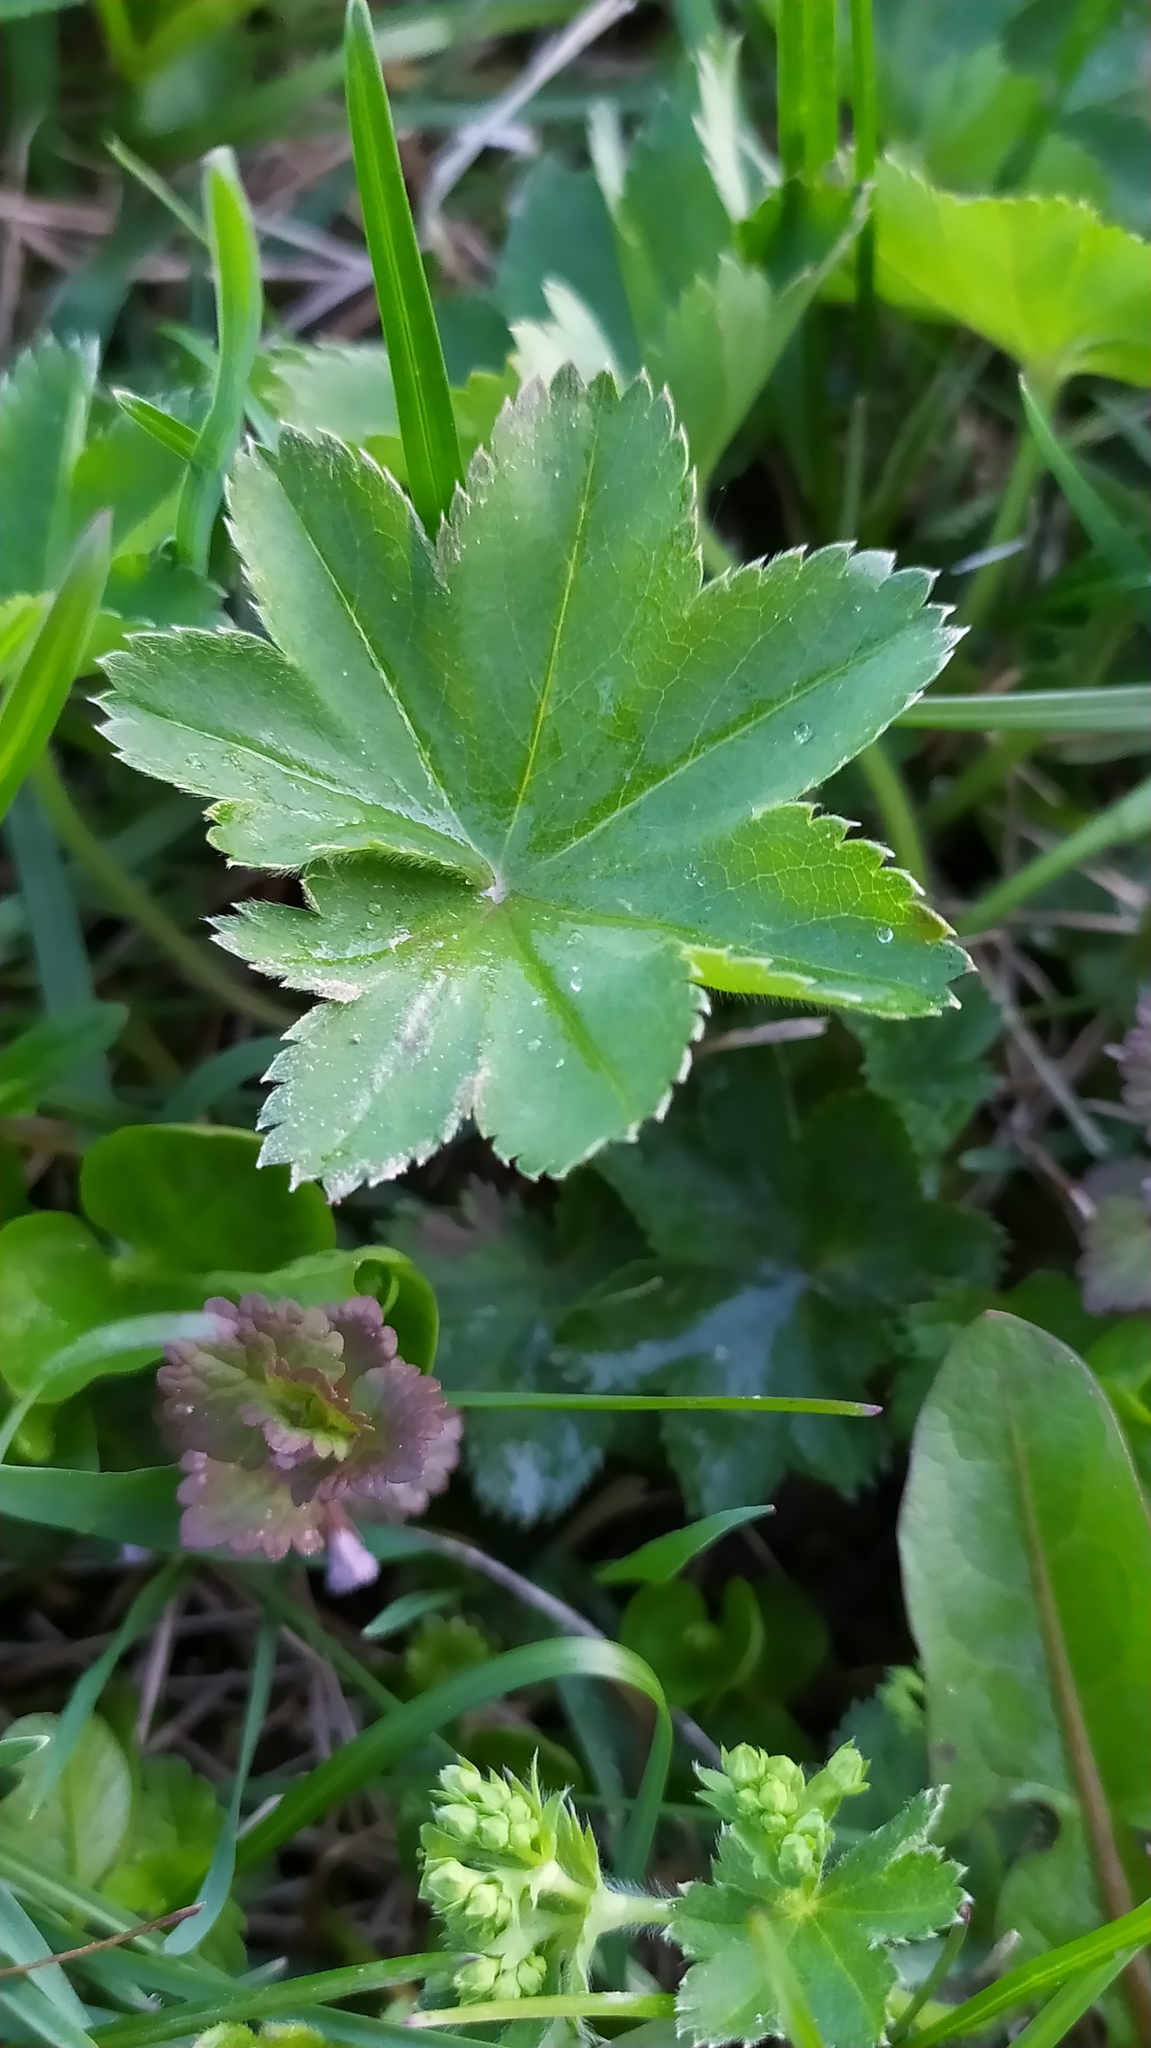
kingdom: Plantae
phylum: Tracheophyta
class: Magnoliopsida
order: Rosales
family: Rosaceae
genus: Alchemilla
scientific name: Alchemilla
